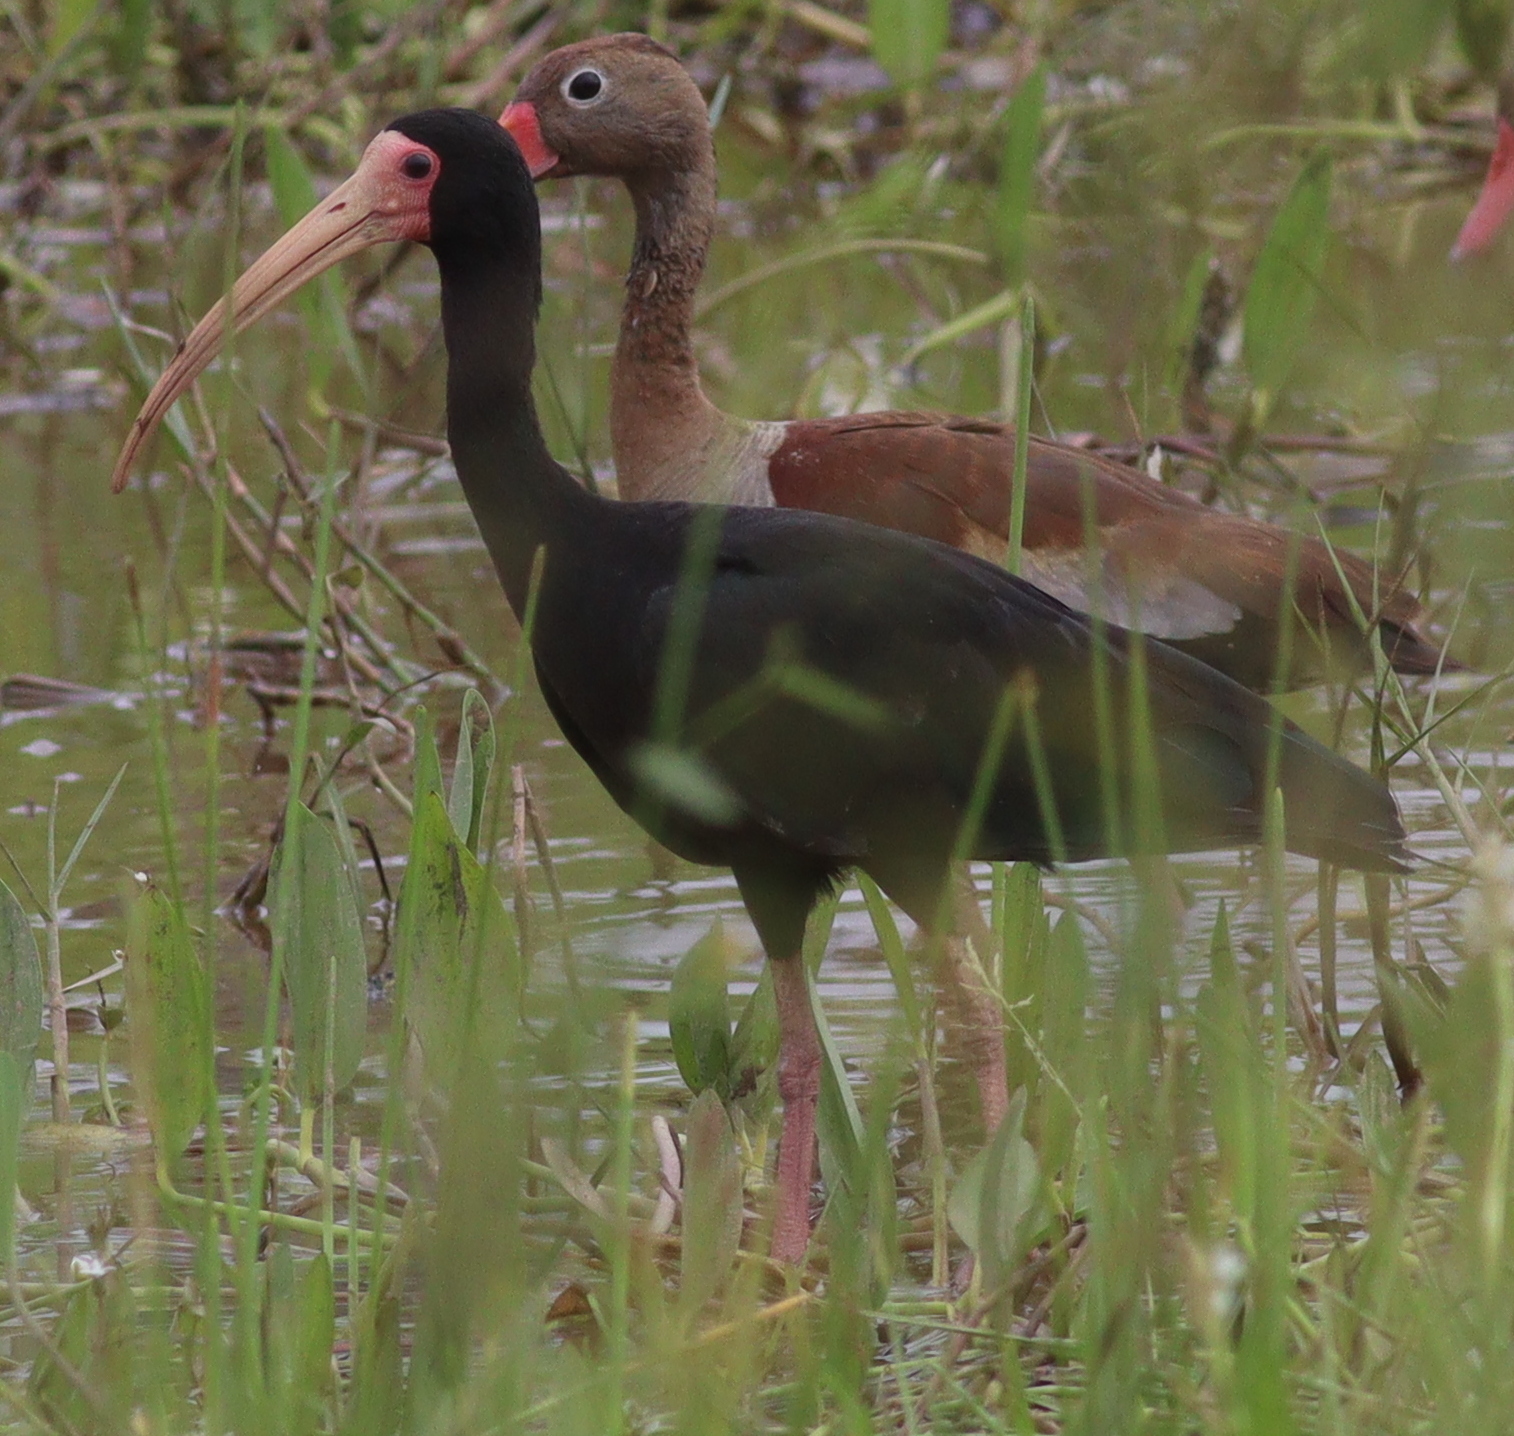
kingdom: Animalia
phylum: Chordata
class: Aves
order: Pelecaniformes
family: Threskiornithidae
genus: Phimosus
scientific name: Phimosus infuscatus
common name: Bare-faced ibis
